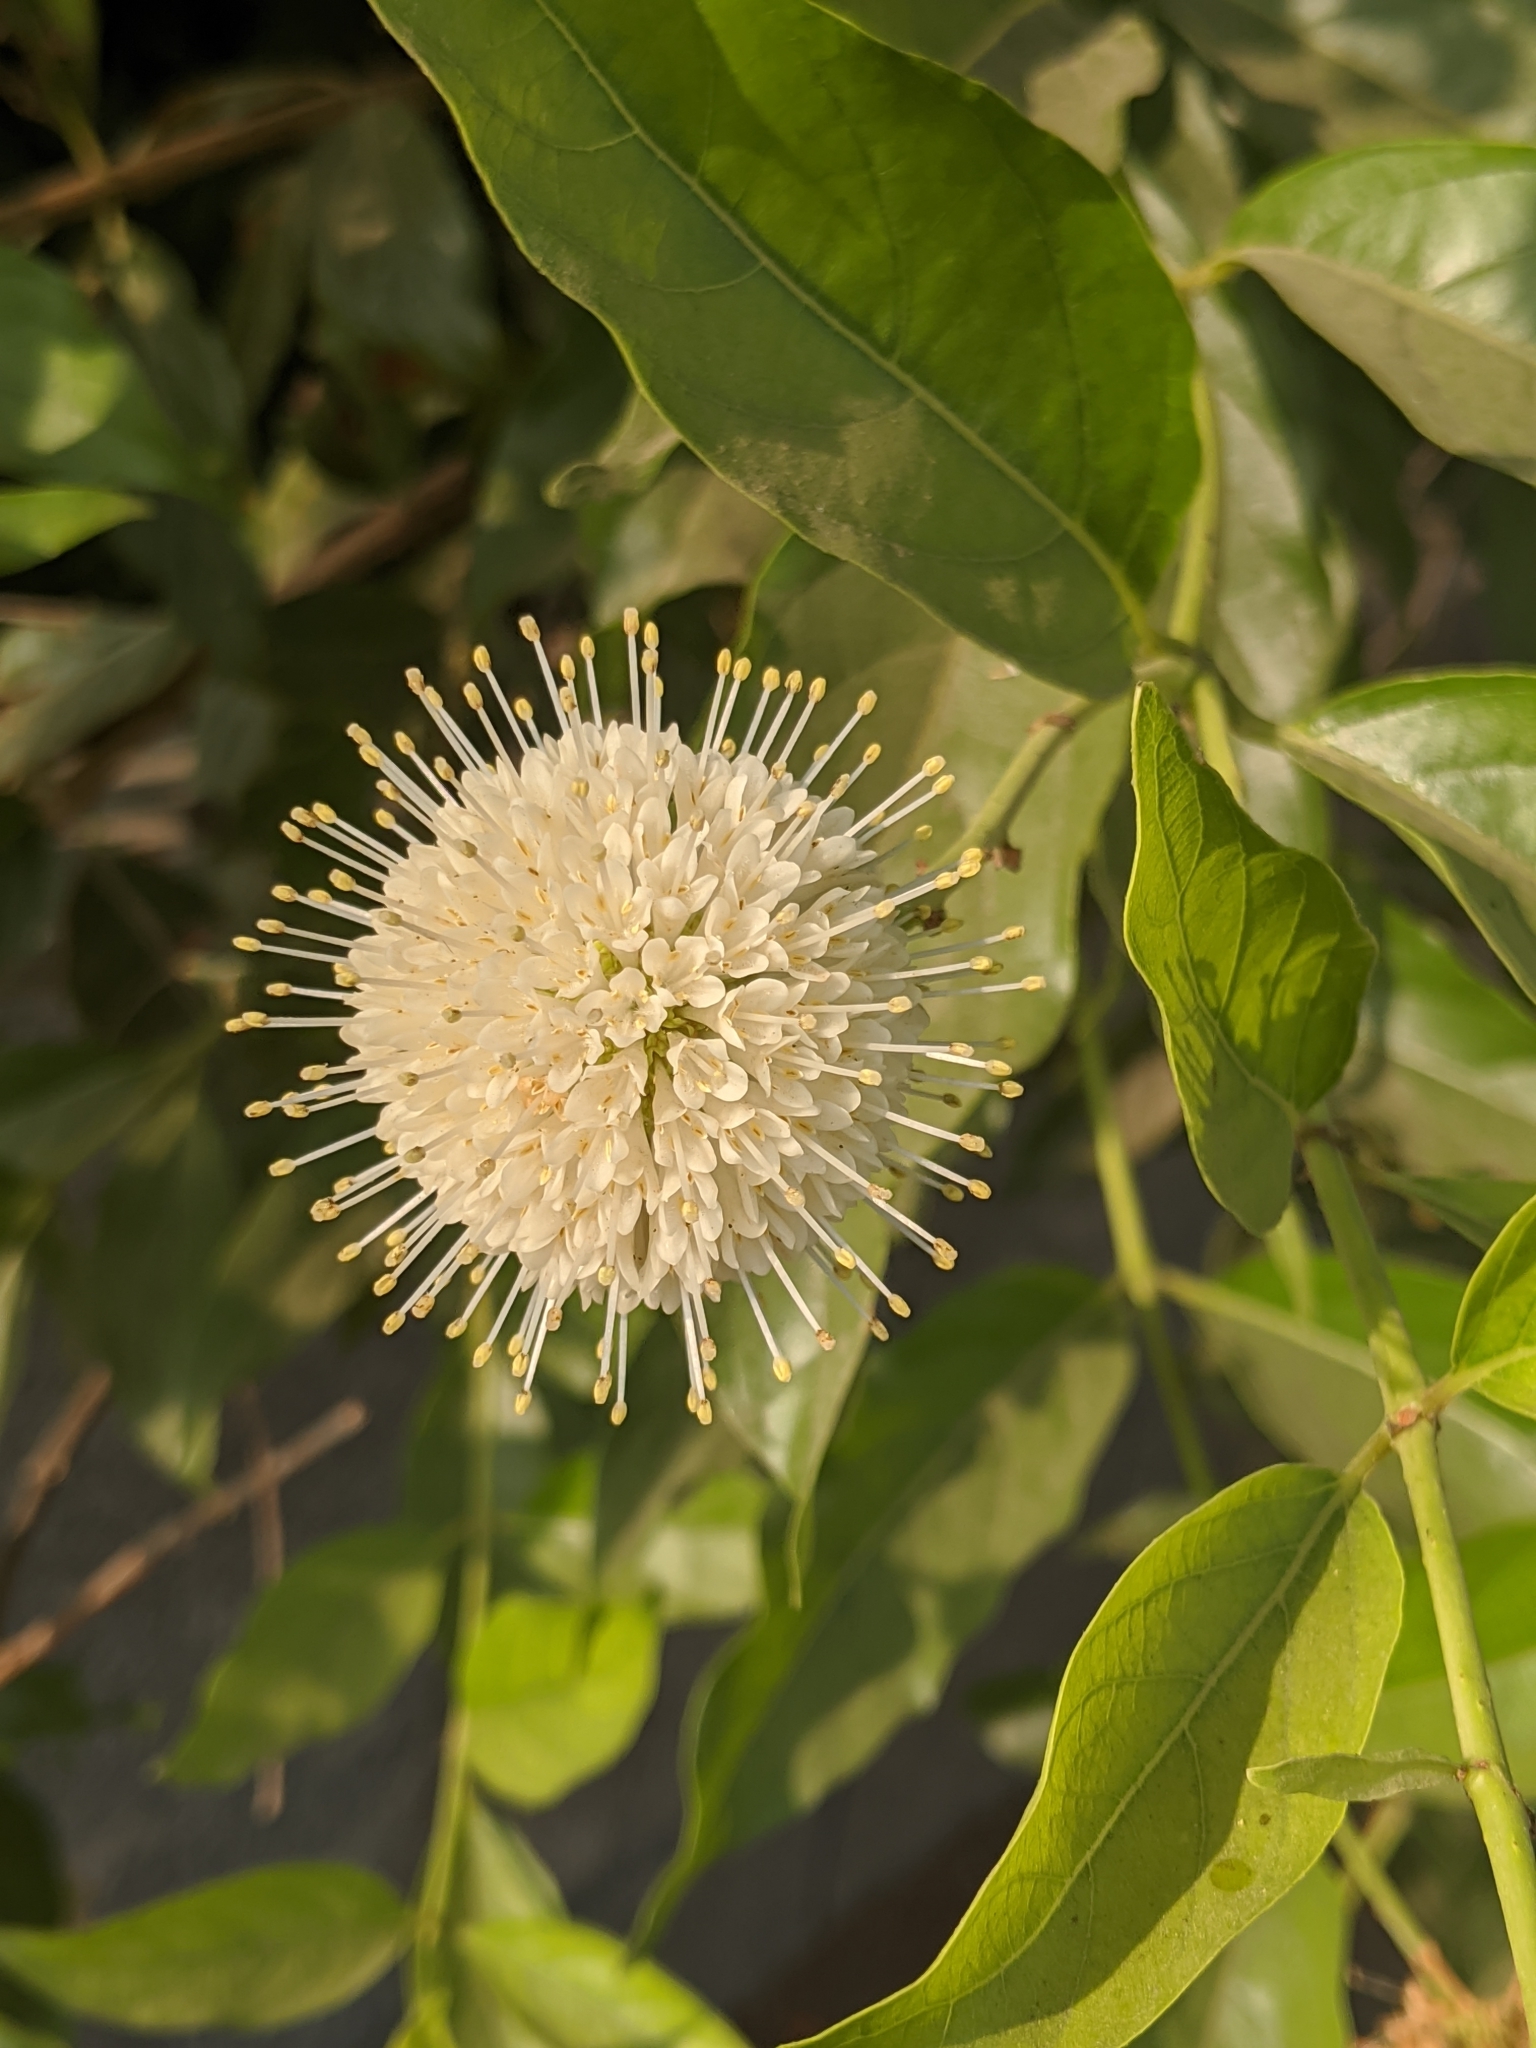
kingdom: Plantae
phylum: Tracheophyta
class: Magnoliopsida
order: Gentianales
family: Rubiaceae
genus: Cephalanthus
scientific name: Cephalanthus occidentalis
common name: Button-willow
